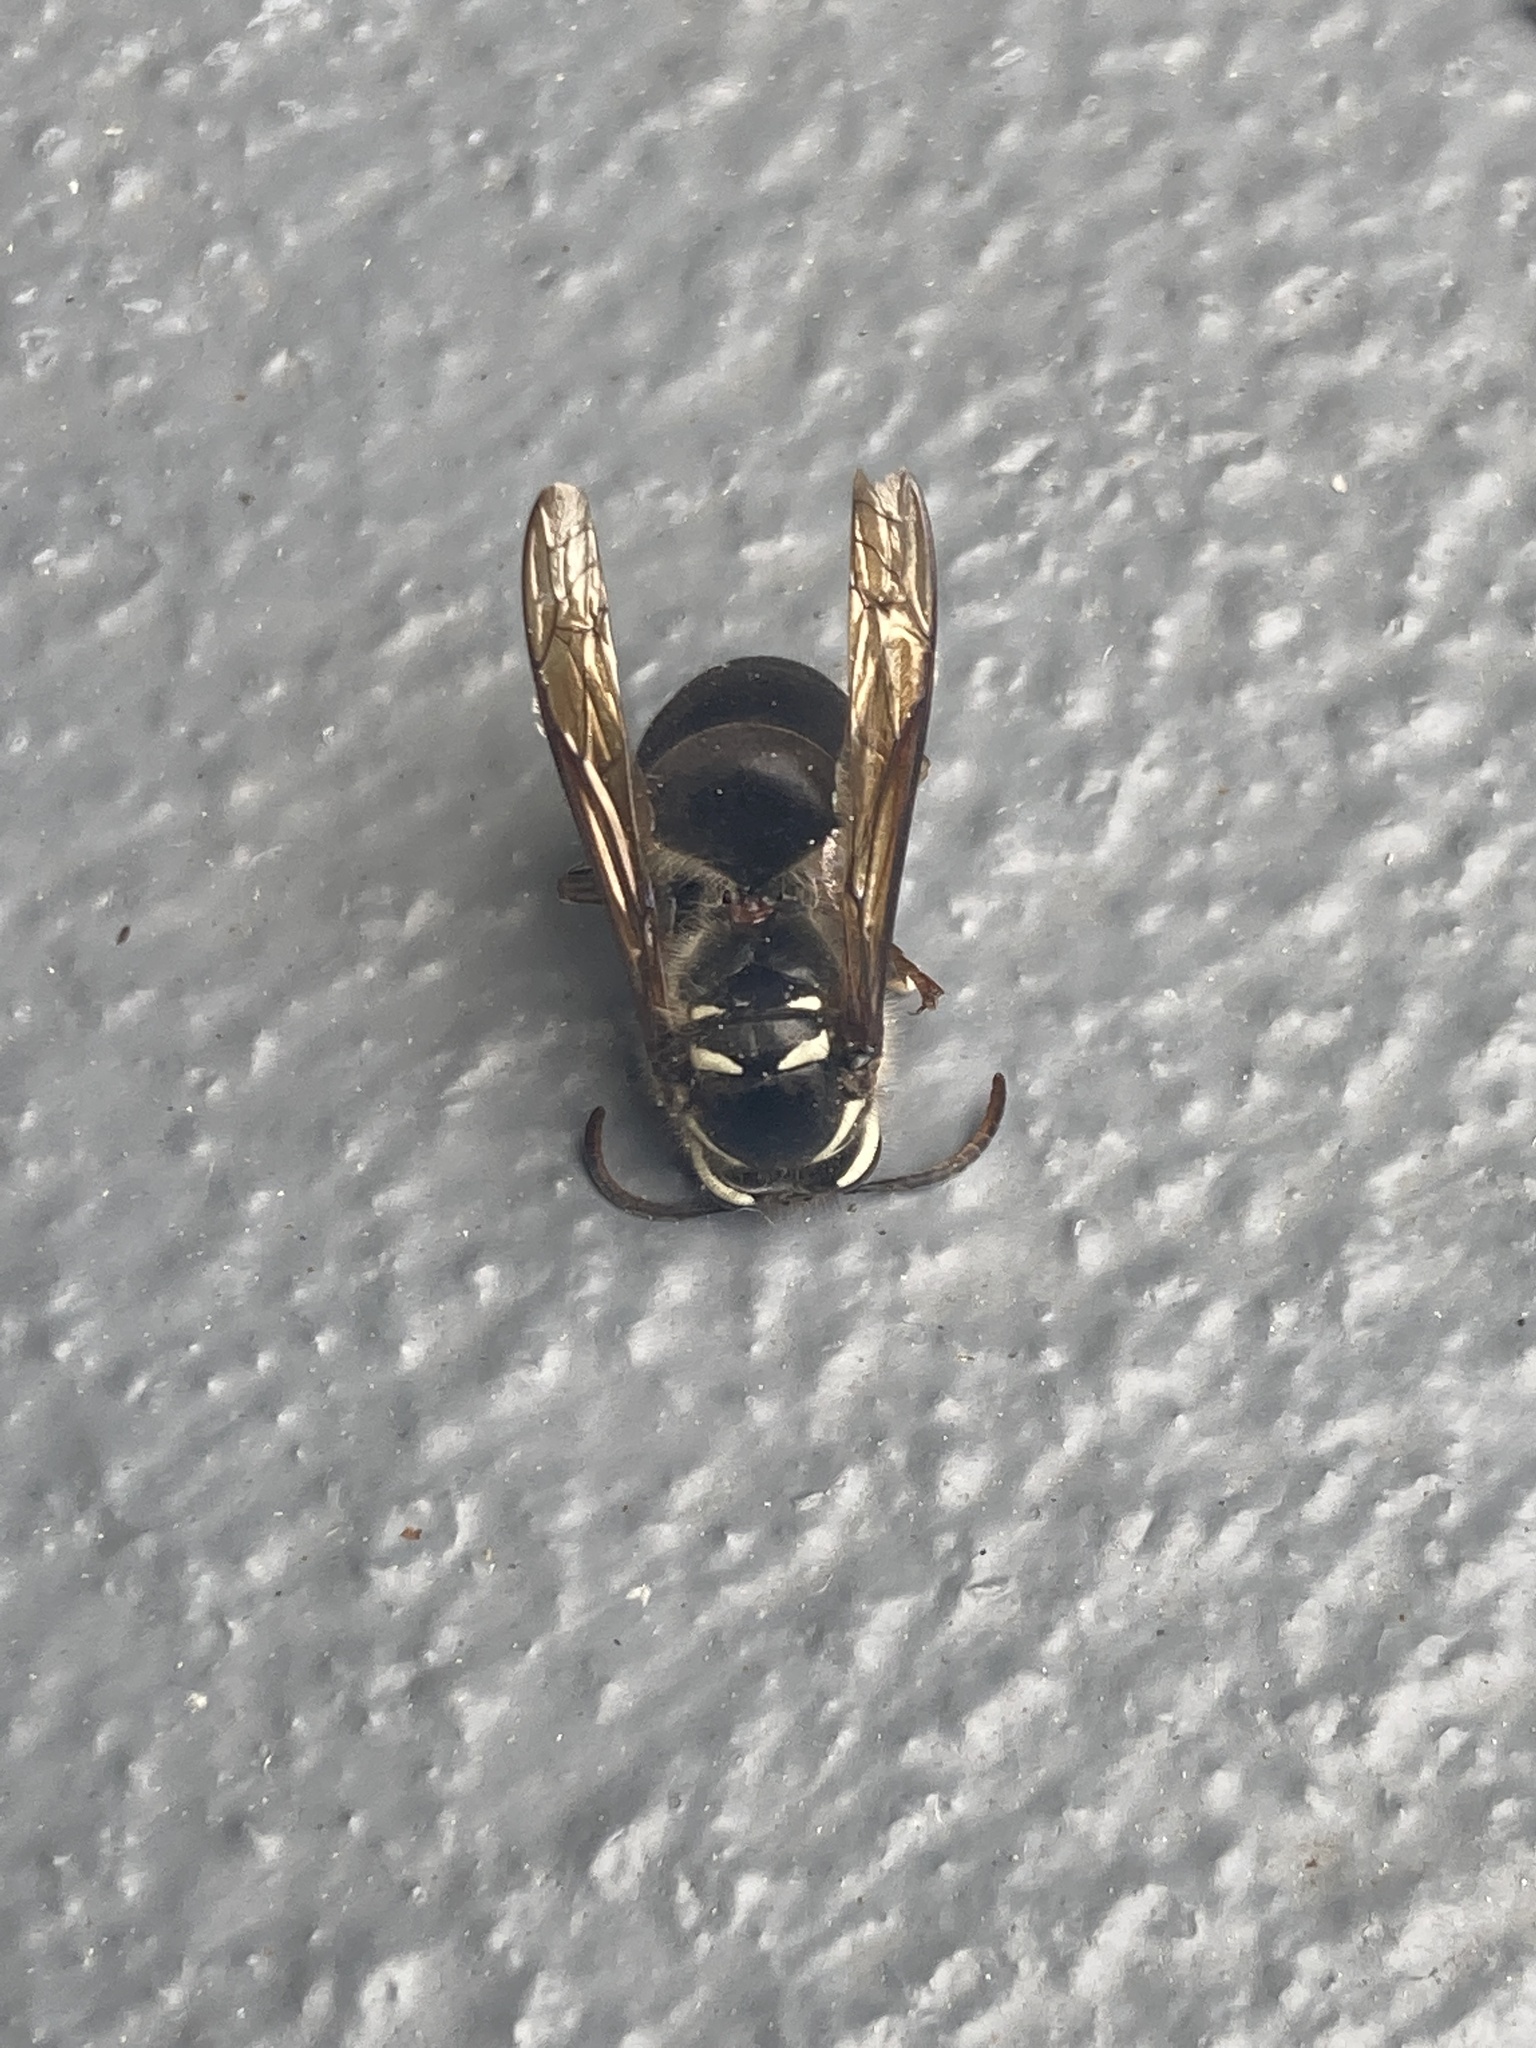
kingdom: Animalia
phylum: Arthropoda
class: Insecta
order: Hymenoptera
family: Vespidae
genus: Dolichovespula
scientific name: Dolichovespula maculata
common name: Bald-faced hornet
